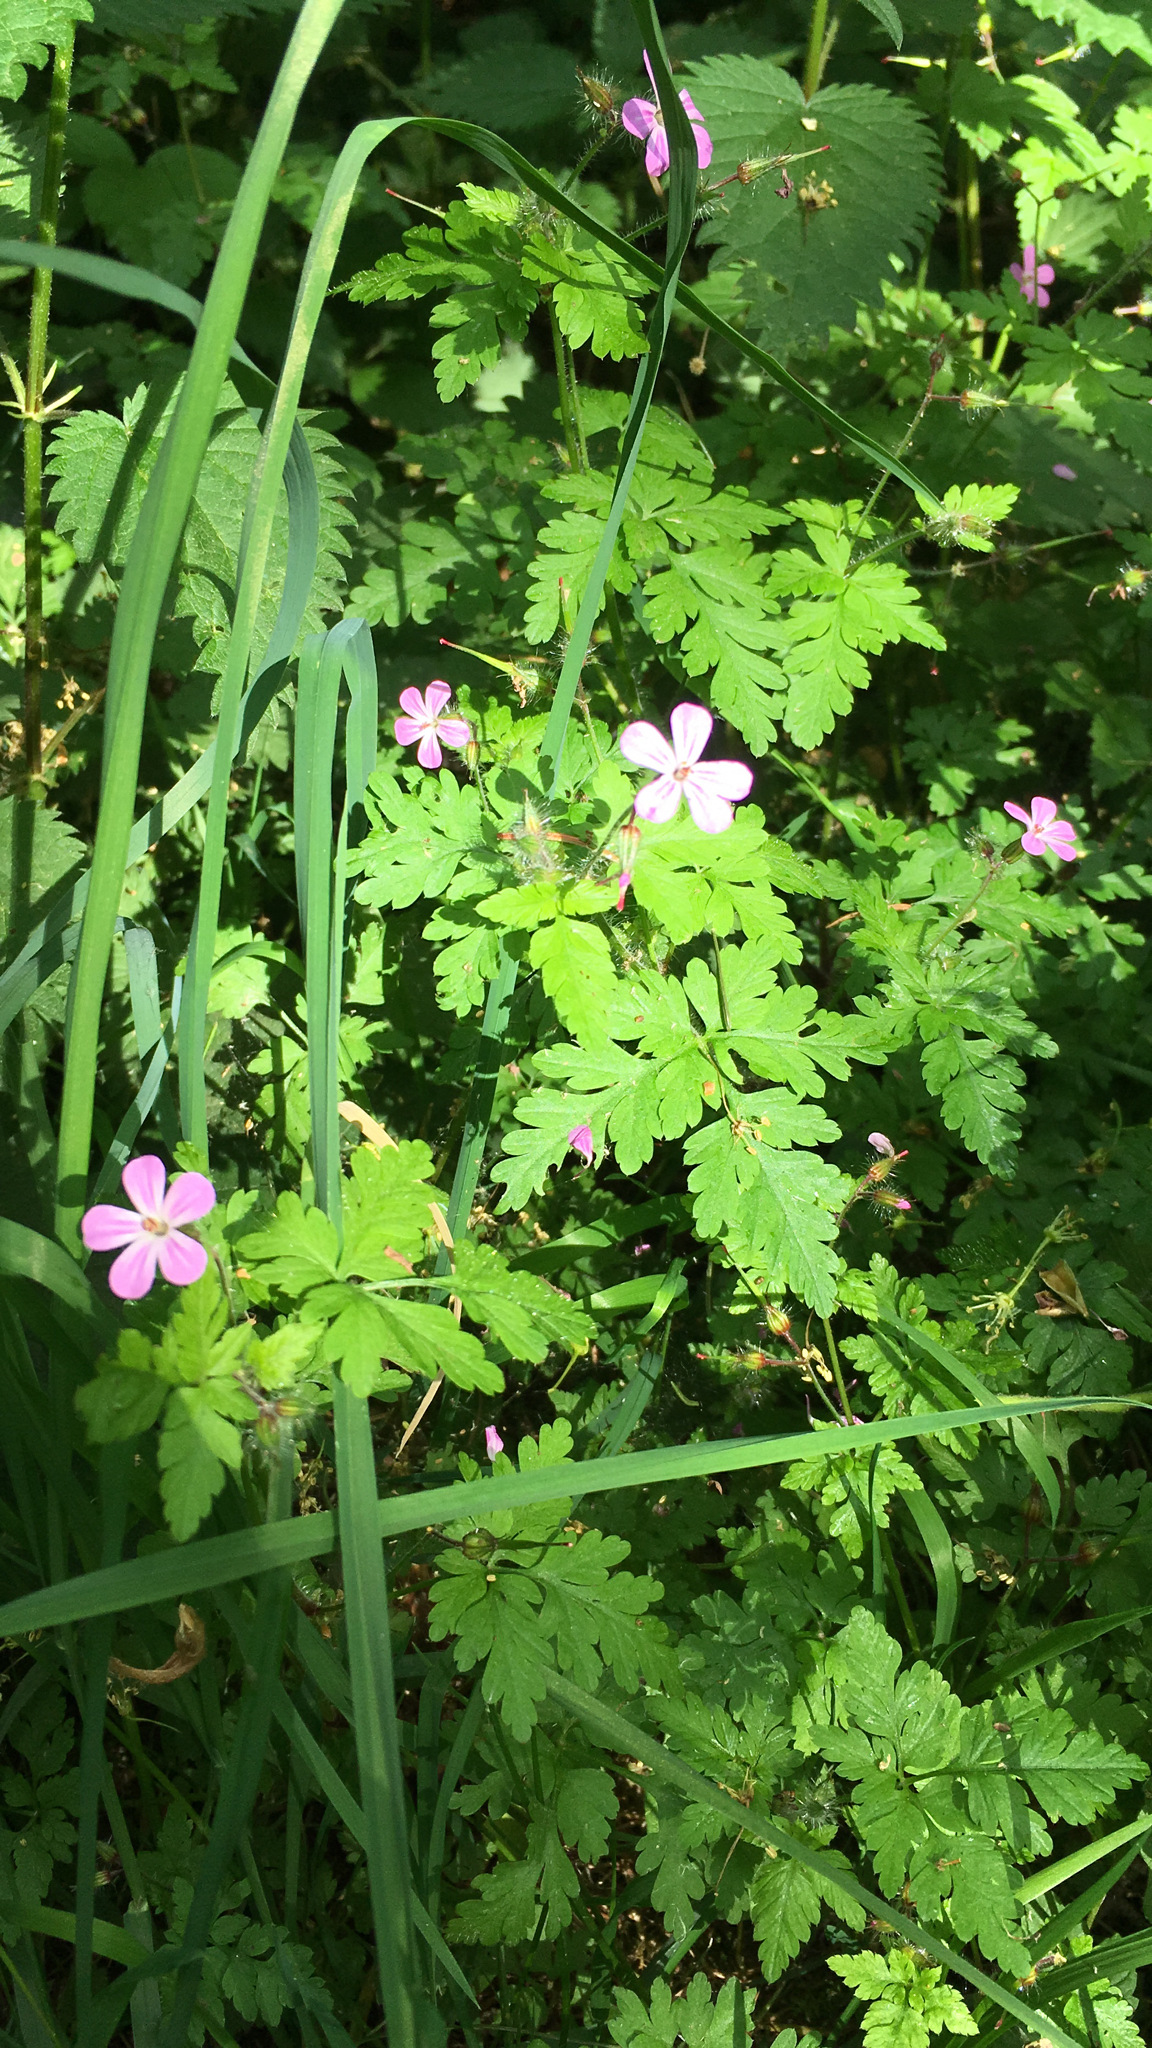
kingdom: Plantae
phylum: Tracheophyta
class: Magnoliopsida
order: Geraniales
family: Geraniaceae
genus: Geranium
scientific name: Geranium robertianum
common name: Herb-robert
